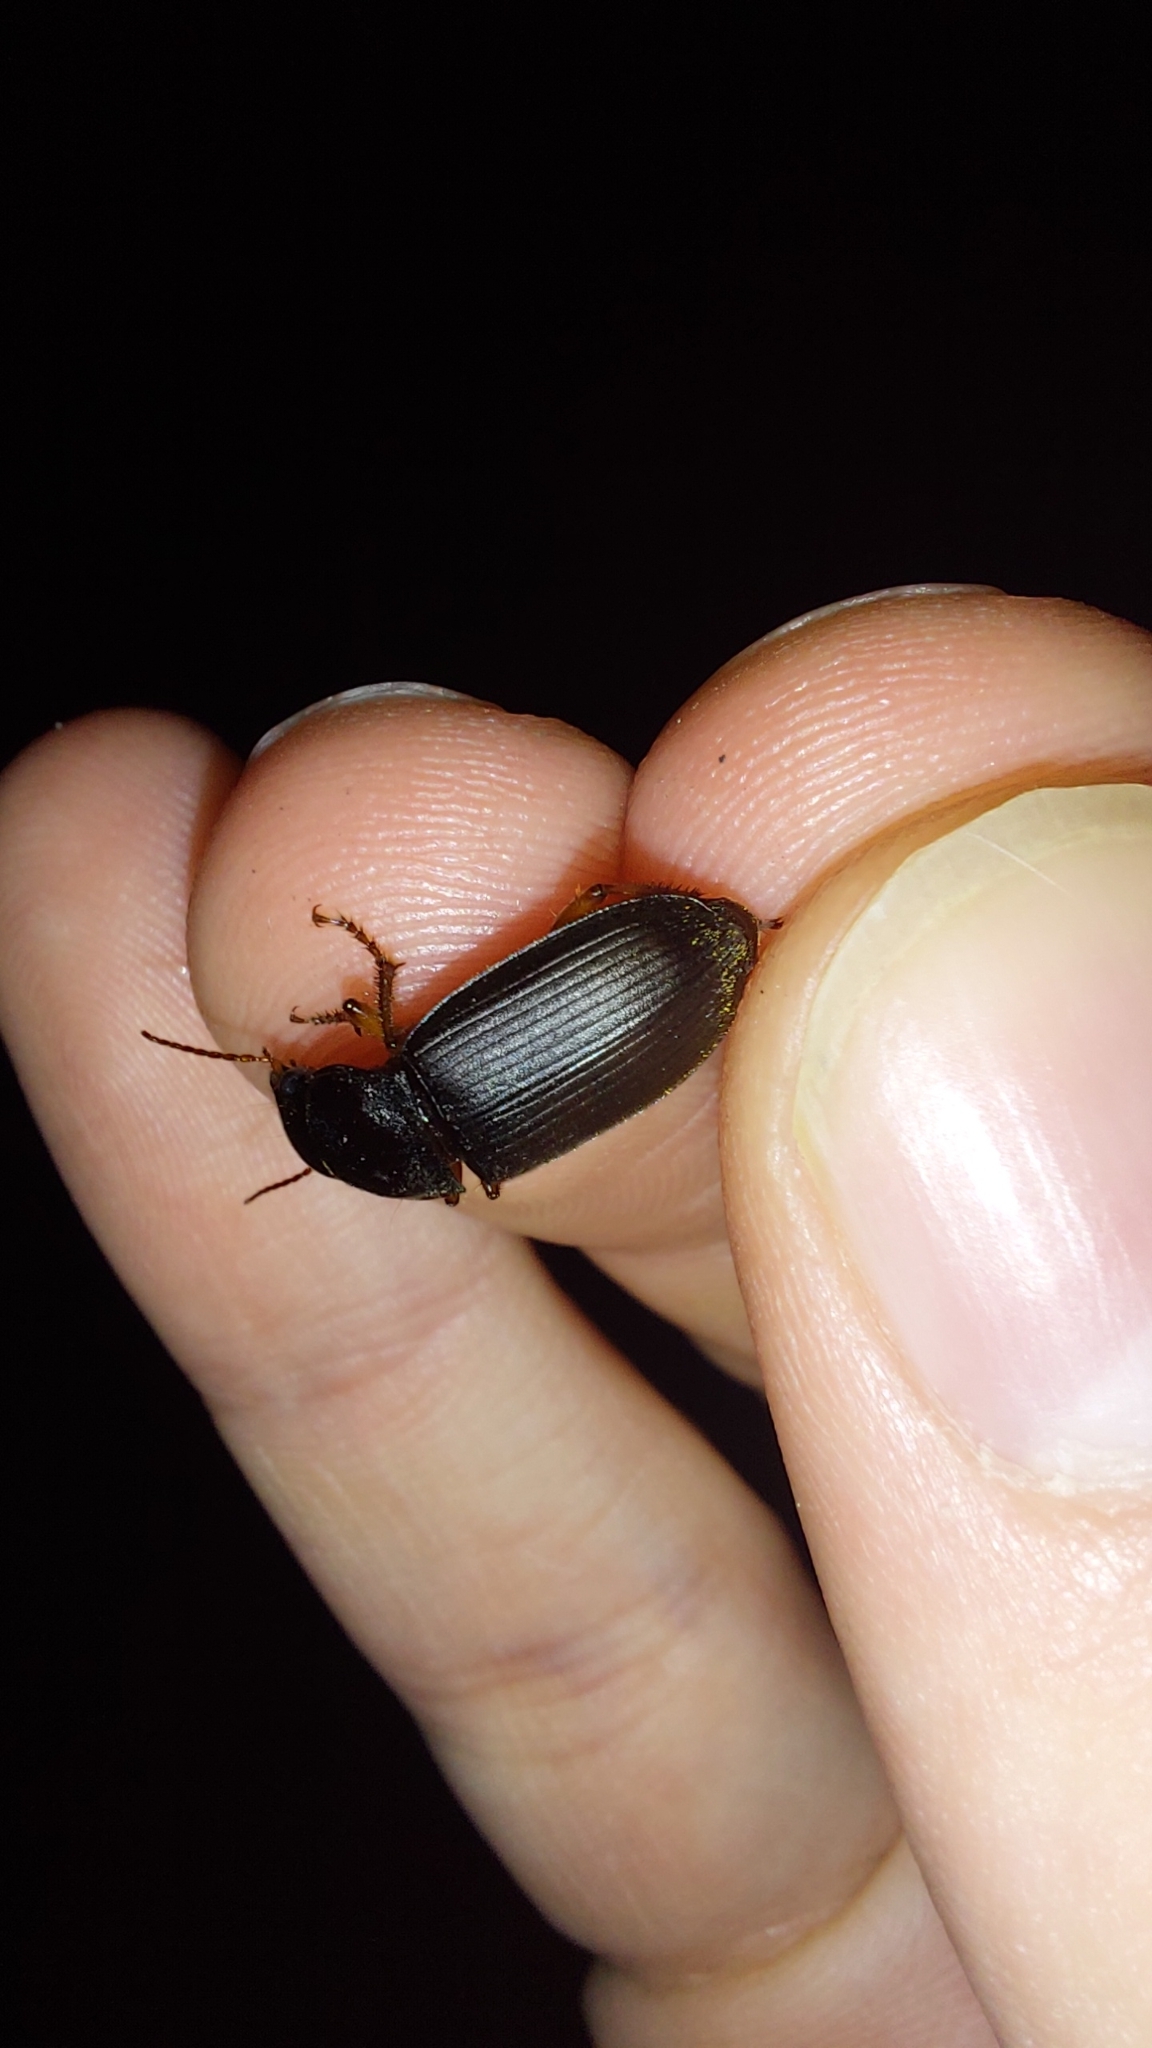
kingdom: Animalia
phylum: Arthropoda
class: Insecta
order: Coleoptera
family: Carabidae
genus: Harpalus
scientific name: Harpalus rufipes
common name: Strawberry harp ground beetle
